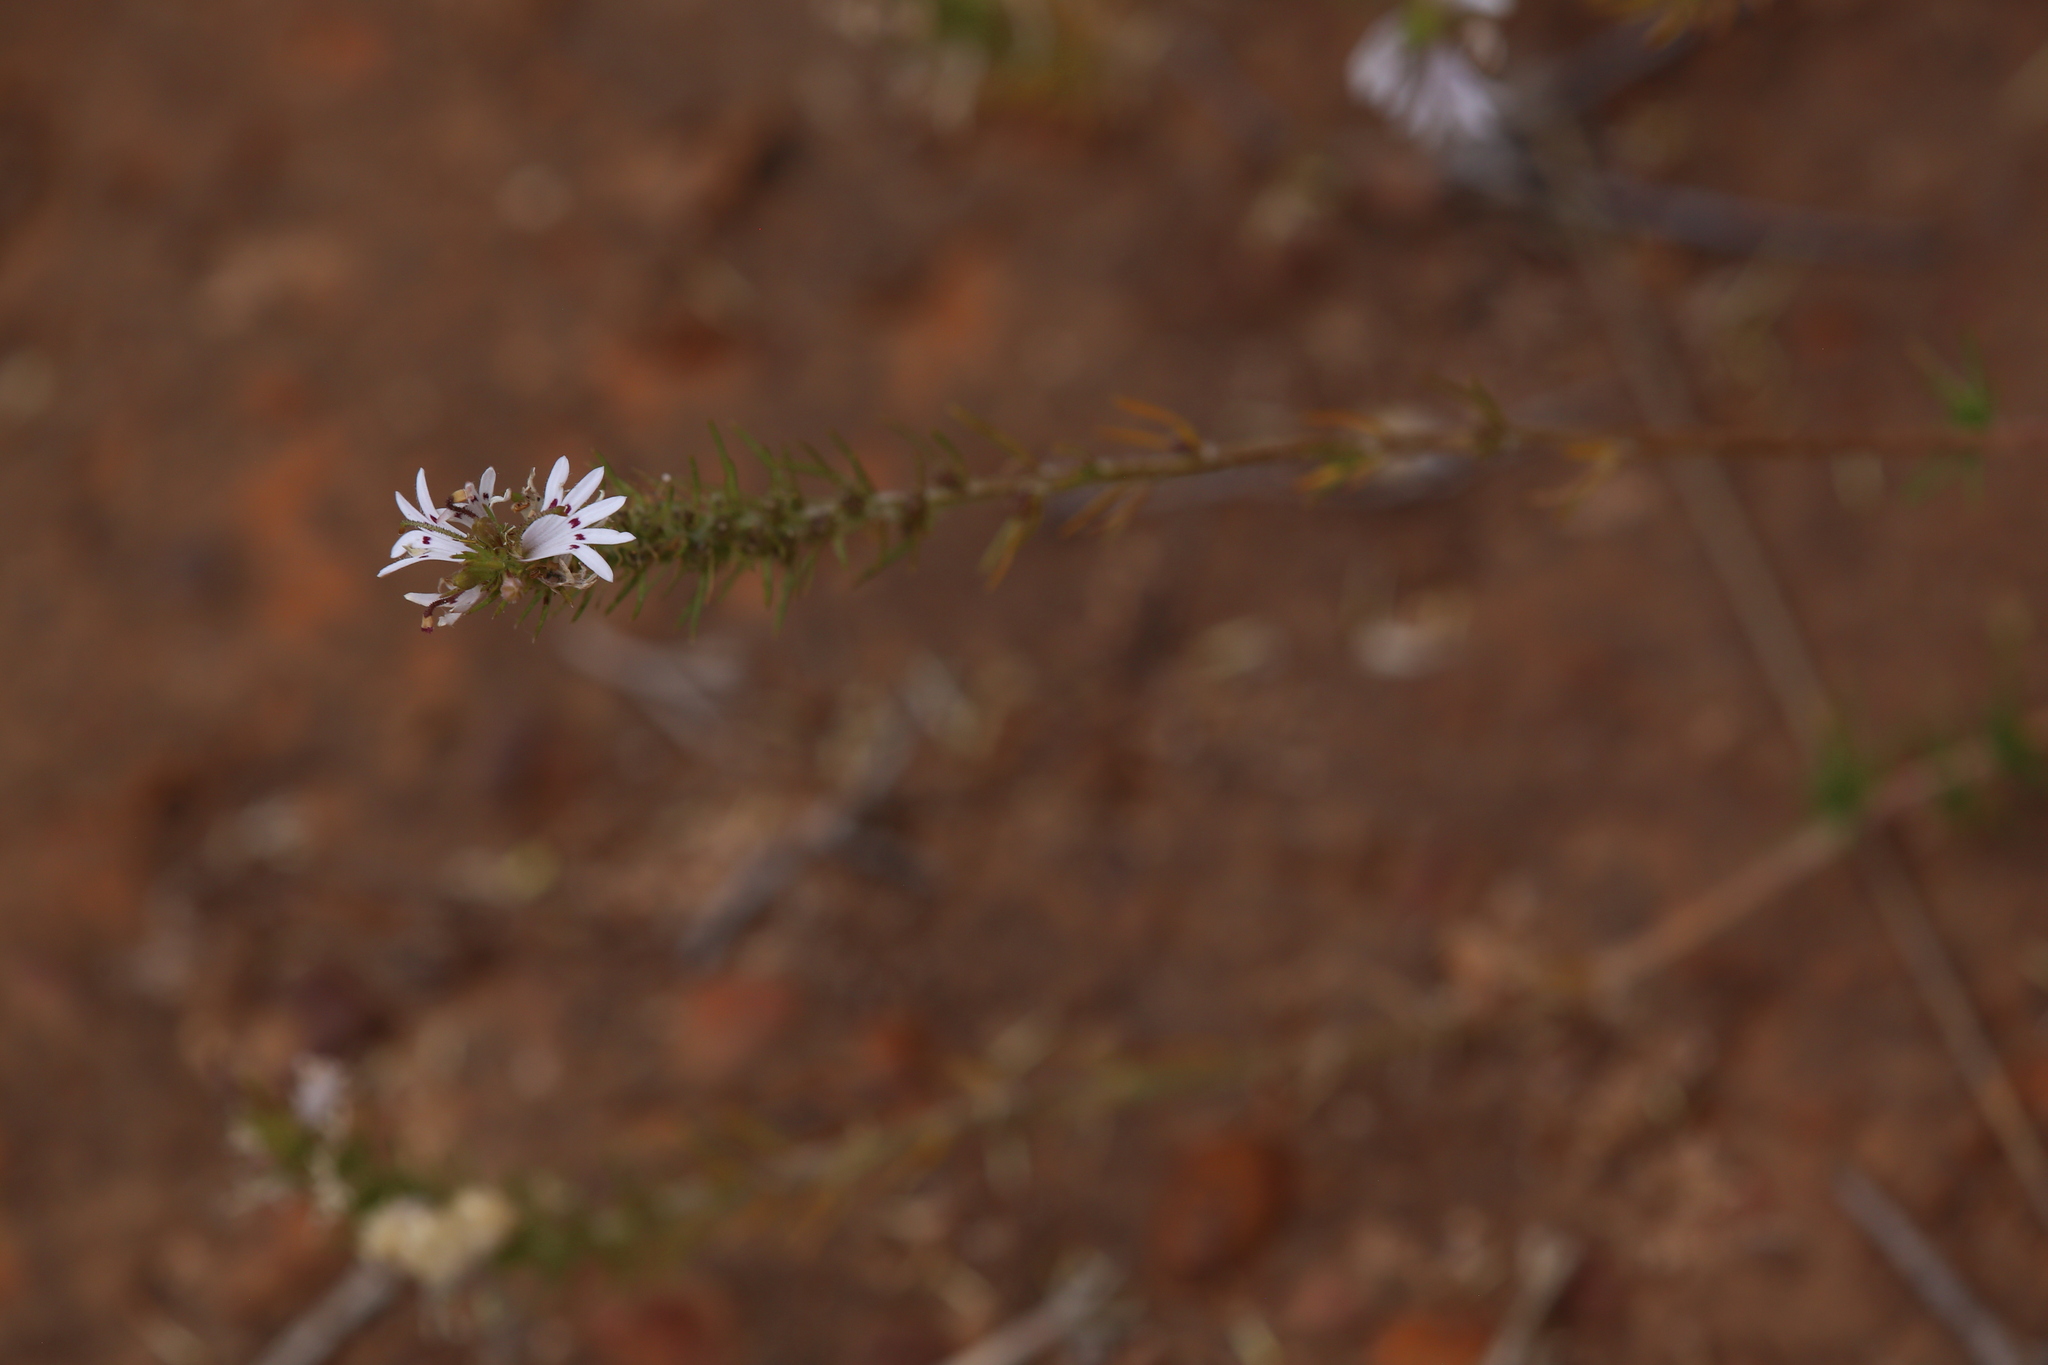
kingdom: Plantae
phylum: Tracheophyta
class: Magnoliopsida
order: Asterales
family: Goodeniaceae
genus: Goodenia
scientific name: Goodenia drummondii
